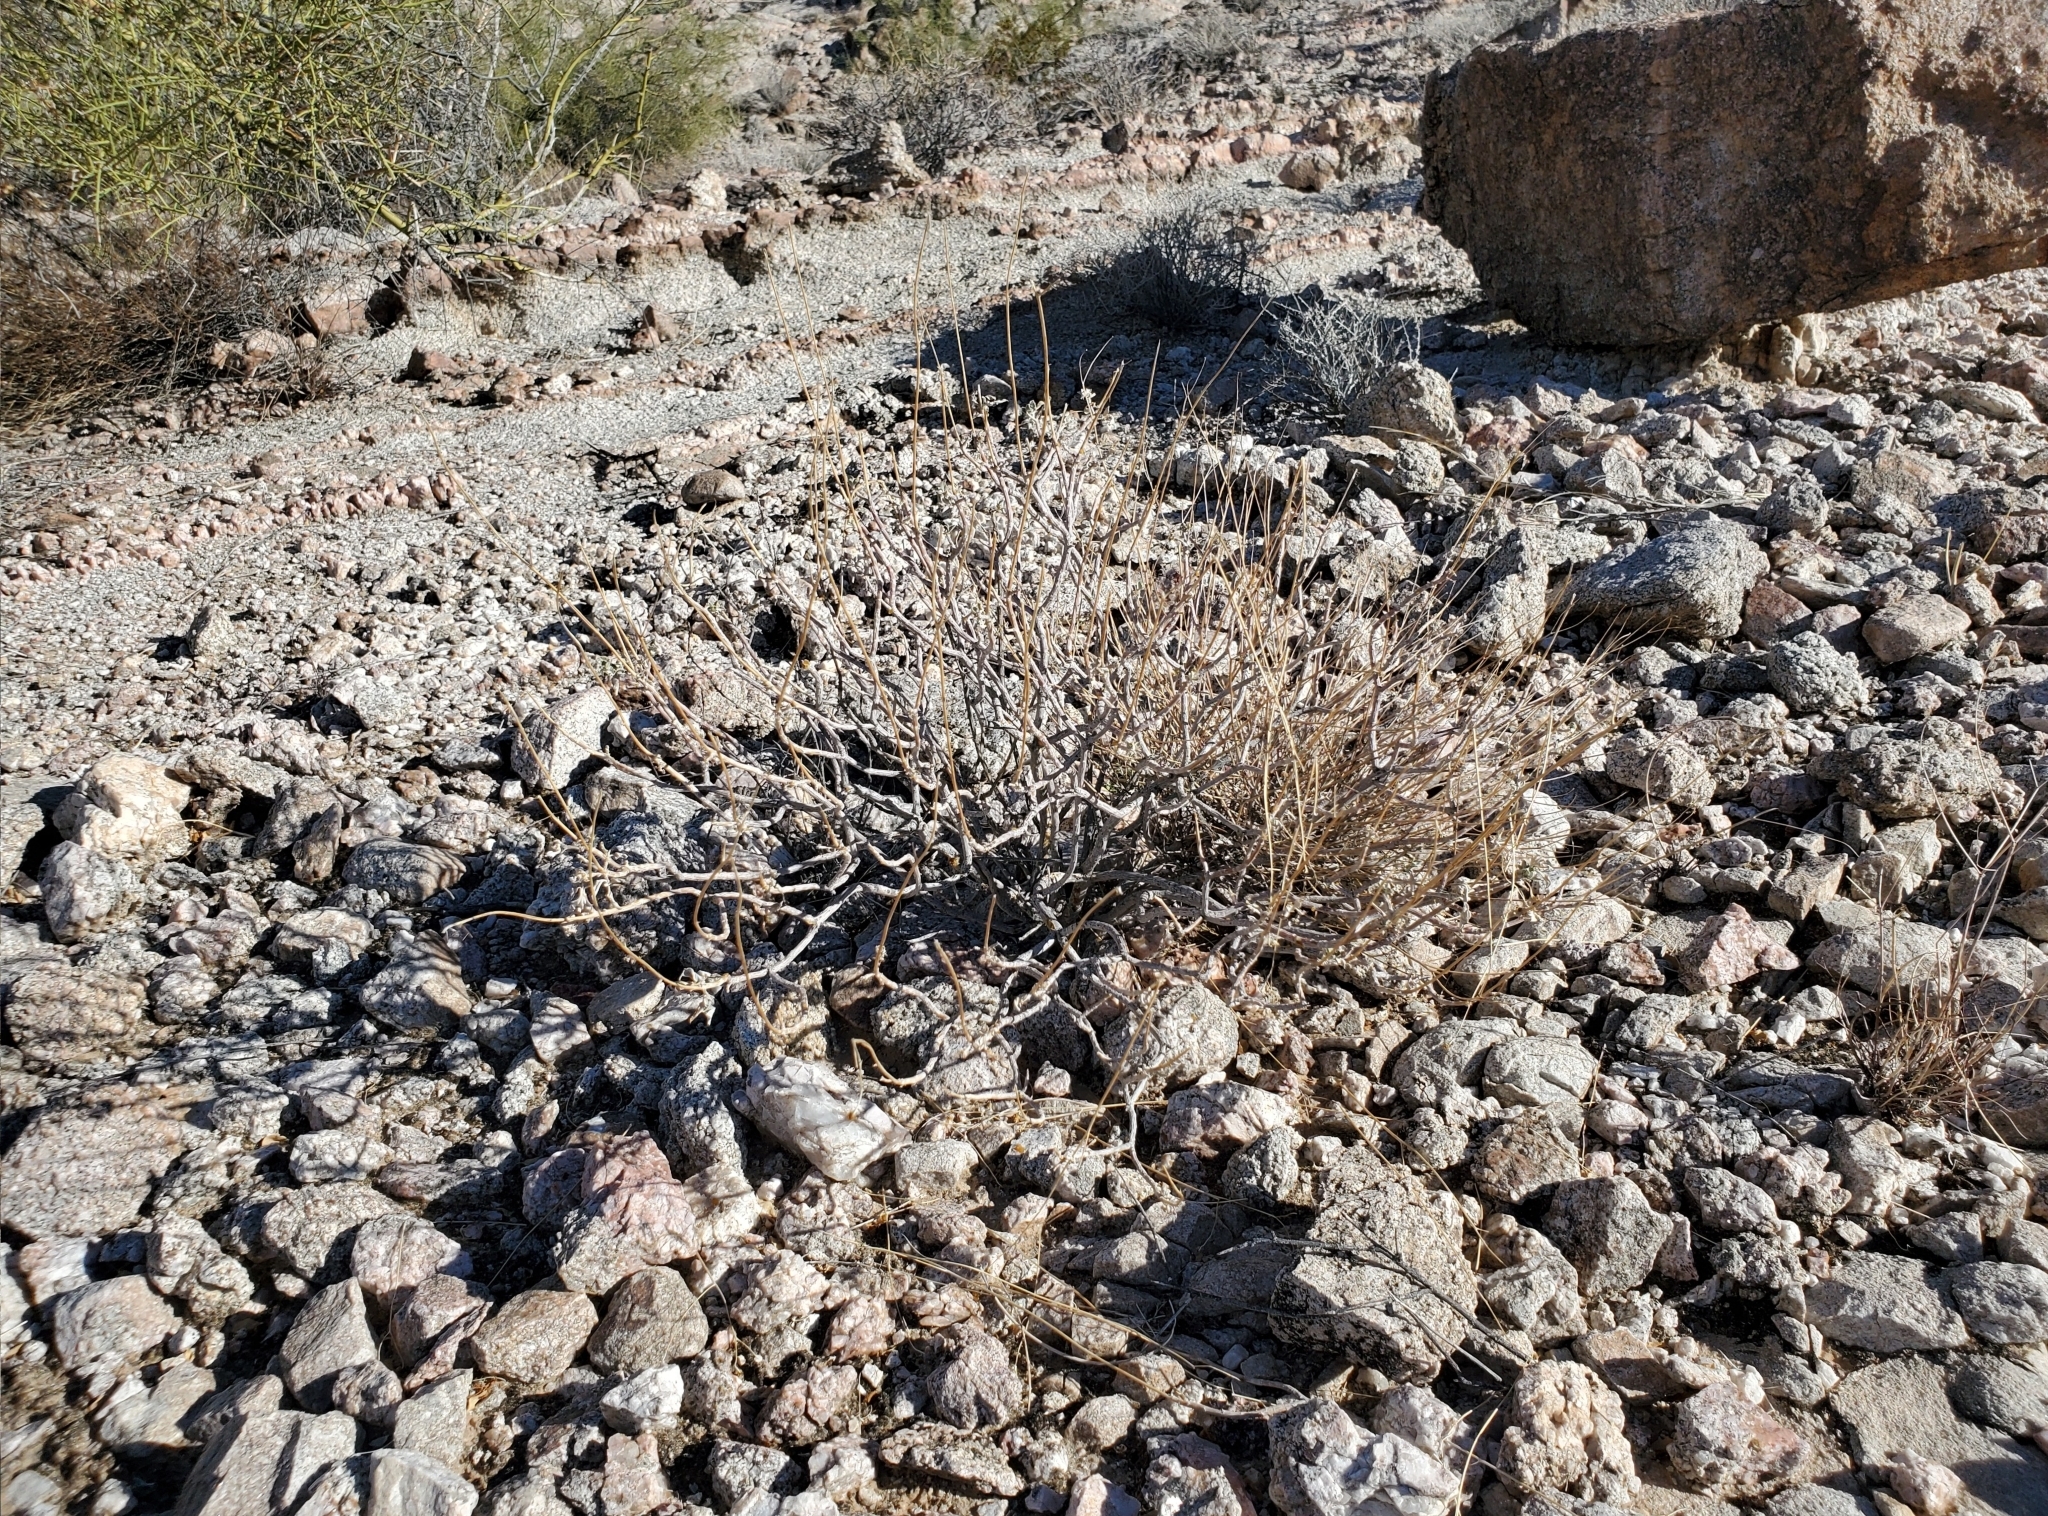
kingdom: Plantae
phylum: Tracheophyta
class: Magnoliopsida
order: Asterales
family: Asteraceae
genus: Encelia
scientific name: Encelia farinosa
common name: Brittlebush
